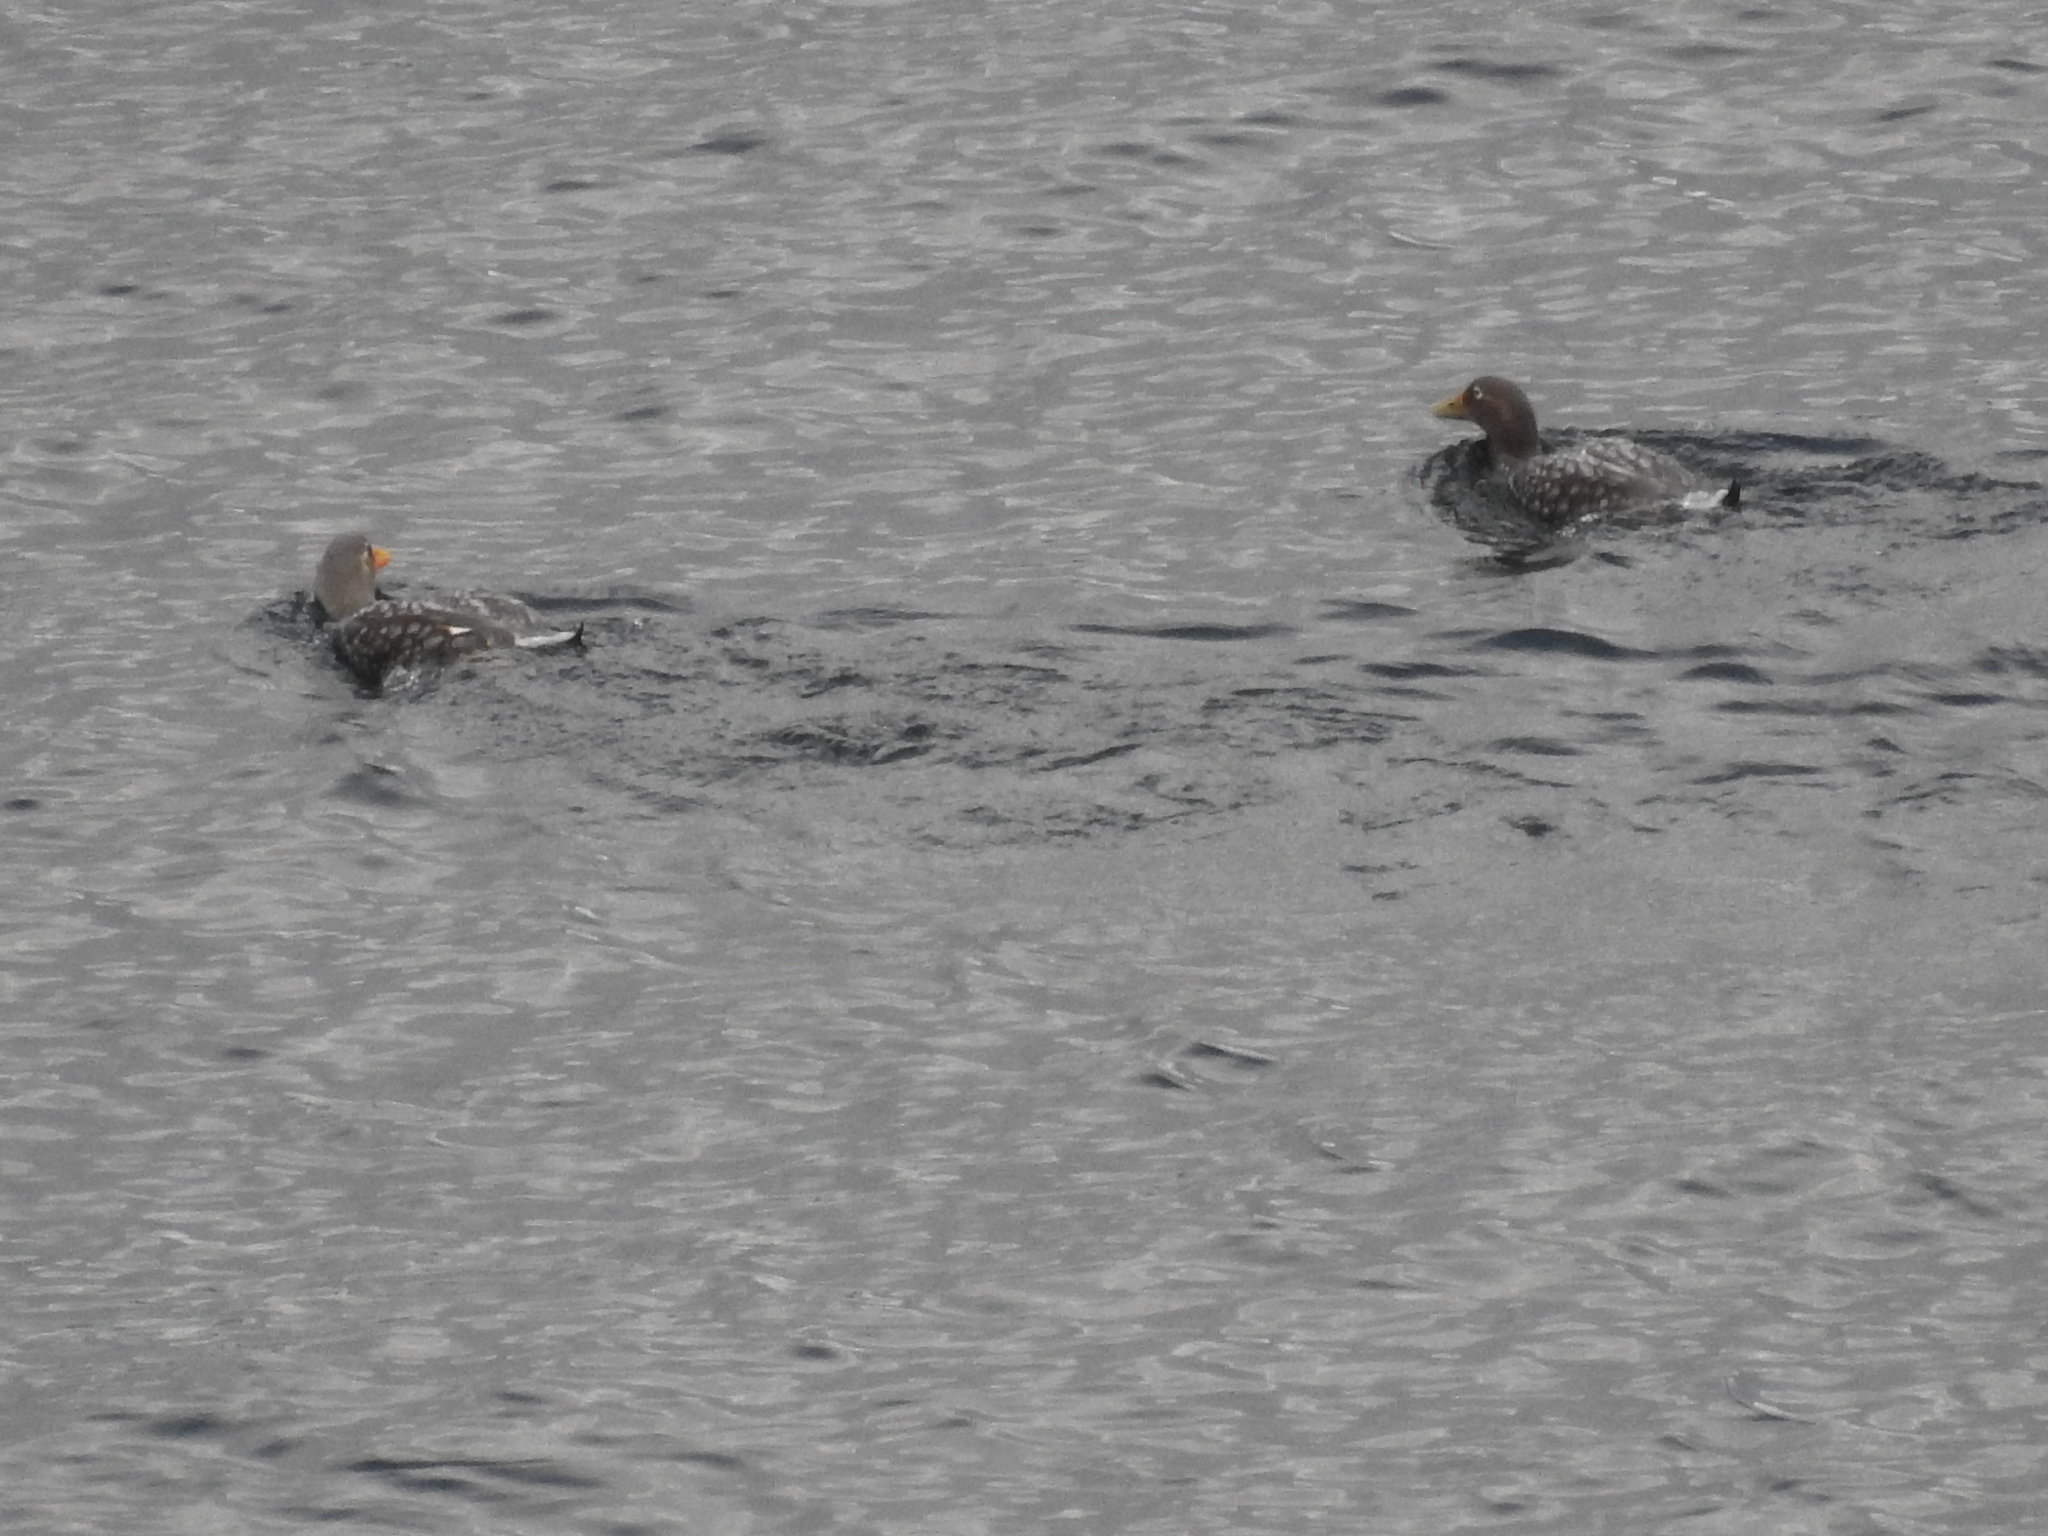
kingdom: Animalia
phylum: Chordata
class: Aves
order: Anseriformes
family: Anatidae
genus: Tachyeres
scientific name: Tachyeres patachonicus
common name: Flying steamer duck
